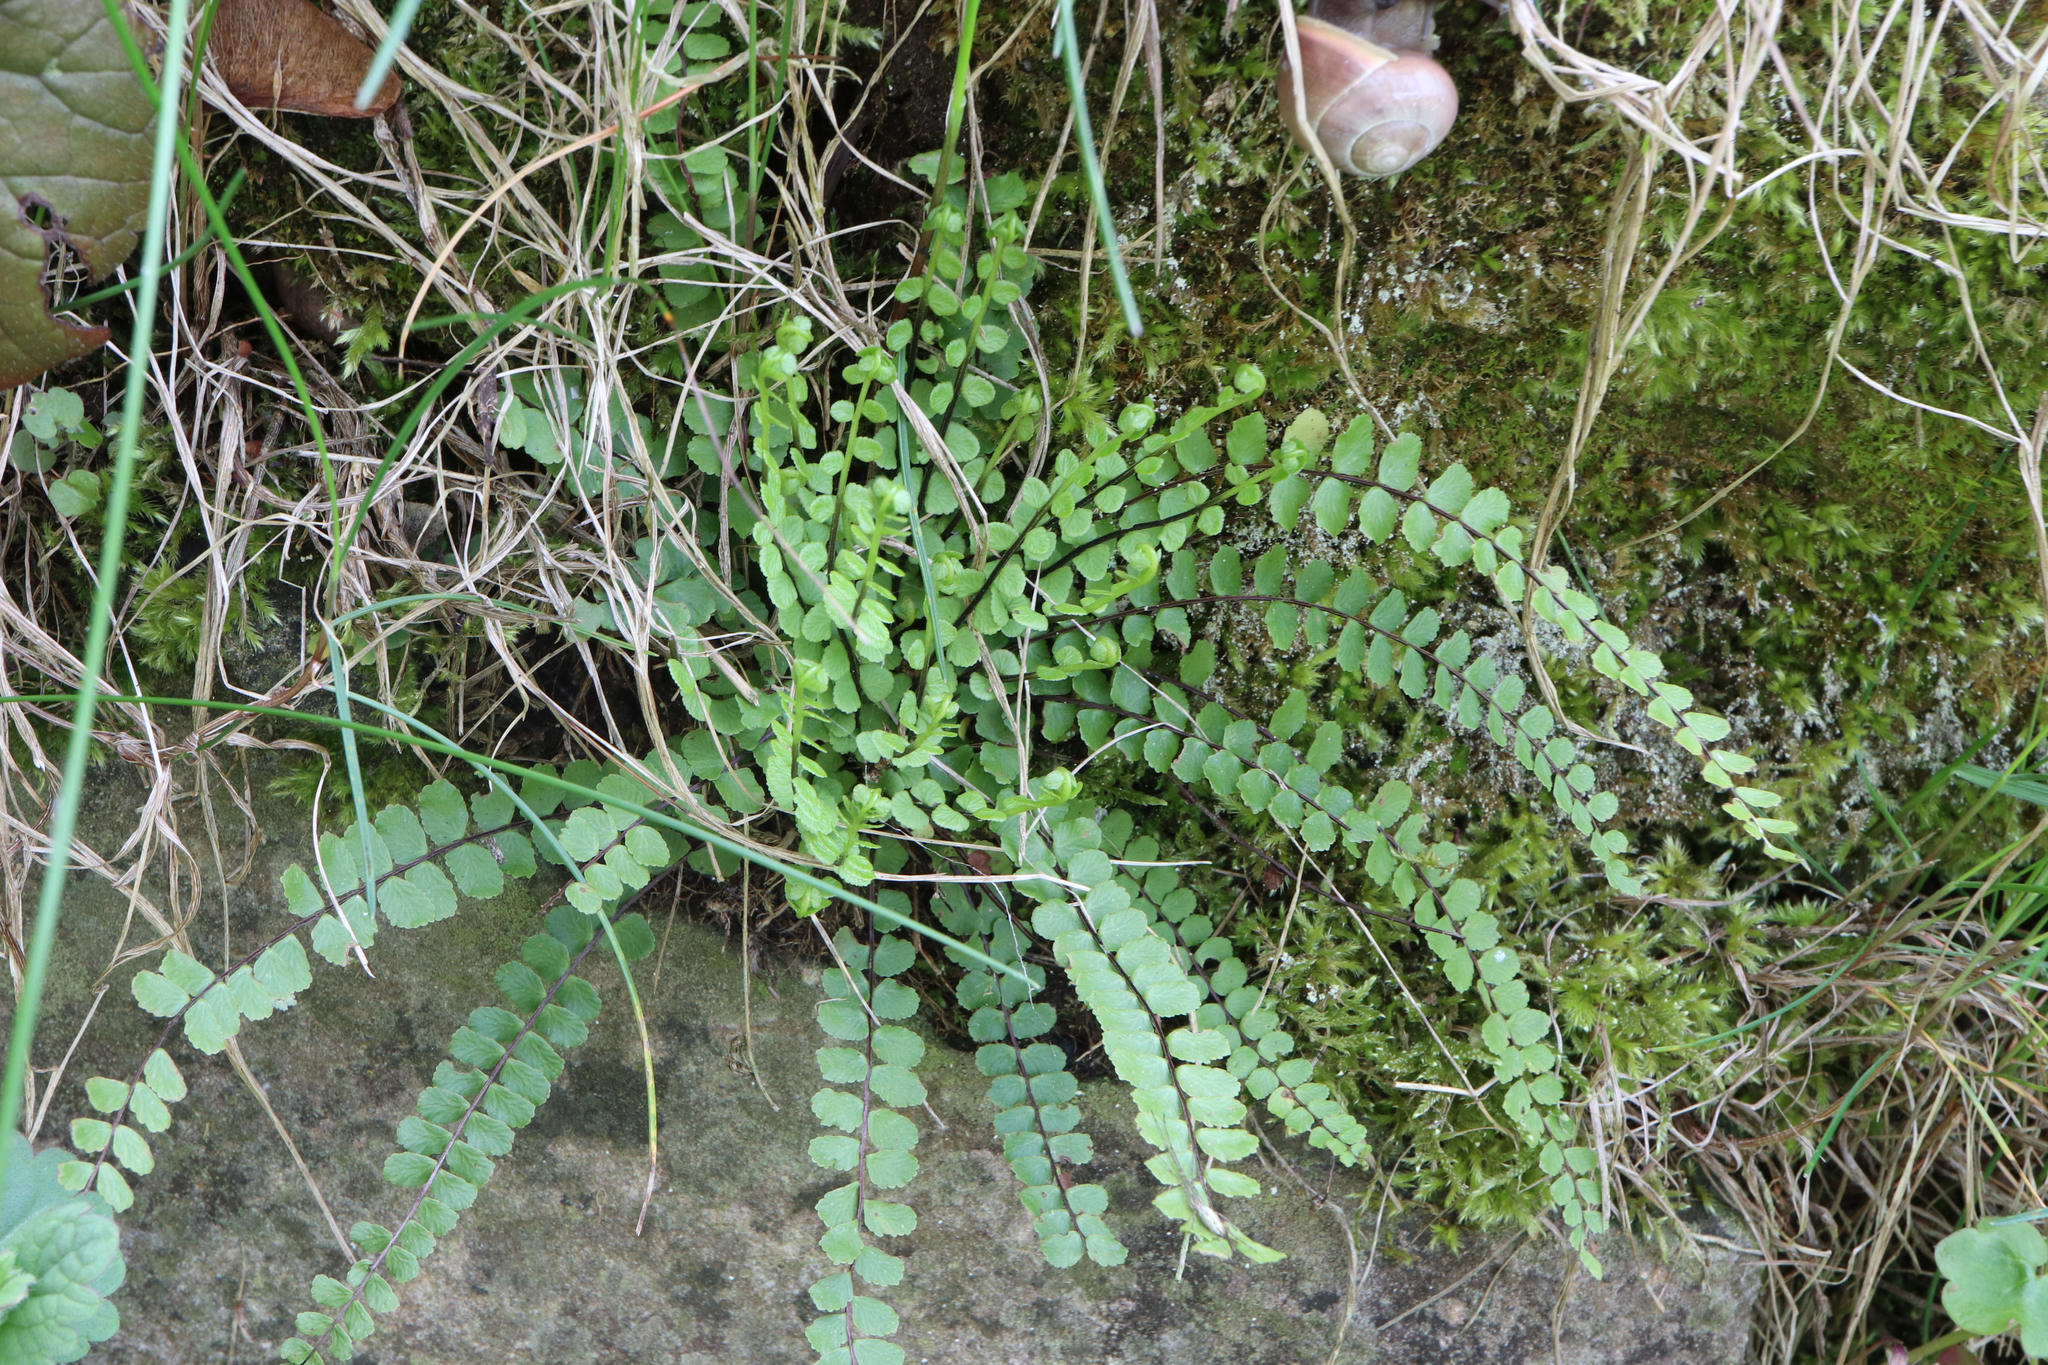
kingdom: Plantae
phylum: Tracheophyta
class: Polypodiopsida
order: Polypodiales
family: Aspleniaceae
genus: Asplenium
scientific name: Asplenium trichomanes
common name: Maidenhair spleenwort
